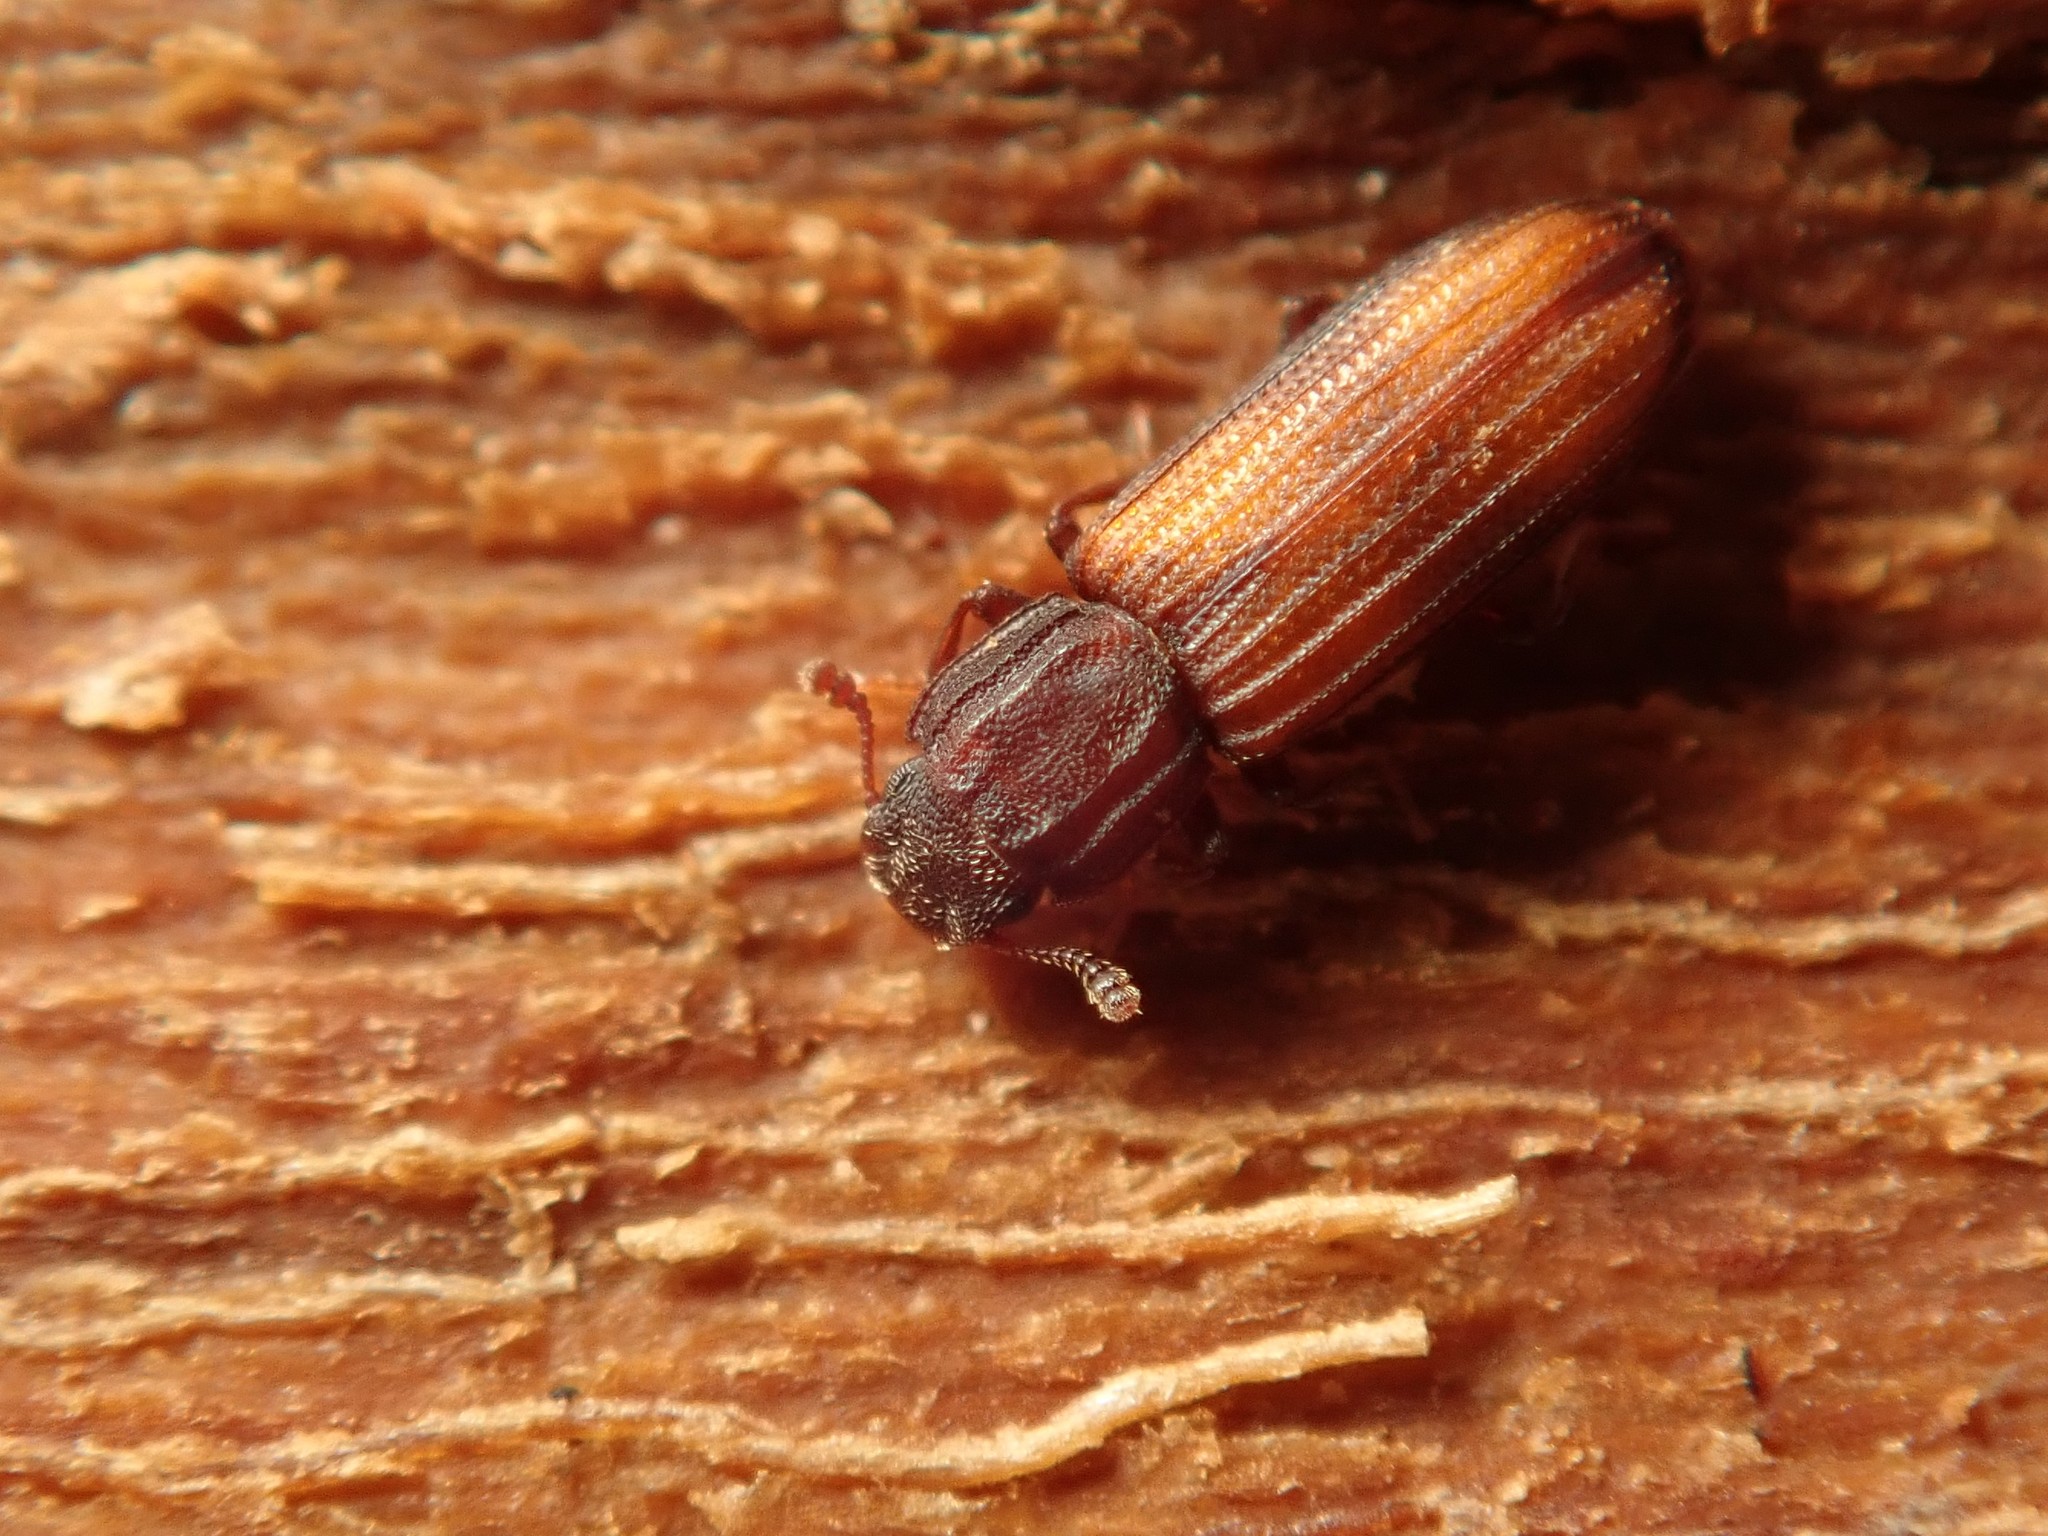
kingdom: Animalia
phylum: Arthropoda
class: Insecta
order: Coleoptera
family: Zopheridae
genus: Bitoma
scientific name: Bitoma crenata
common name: Bark beetle
